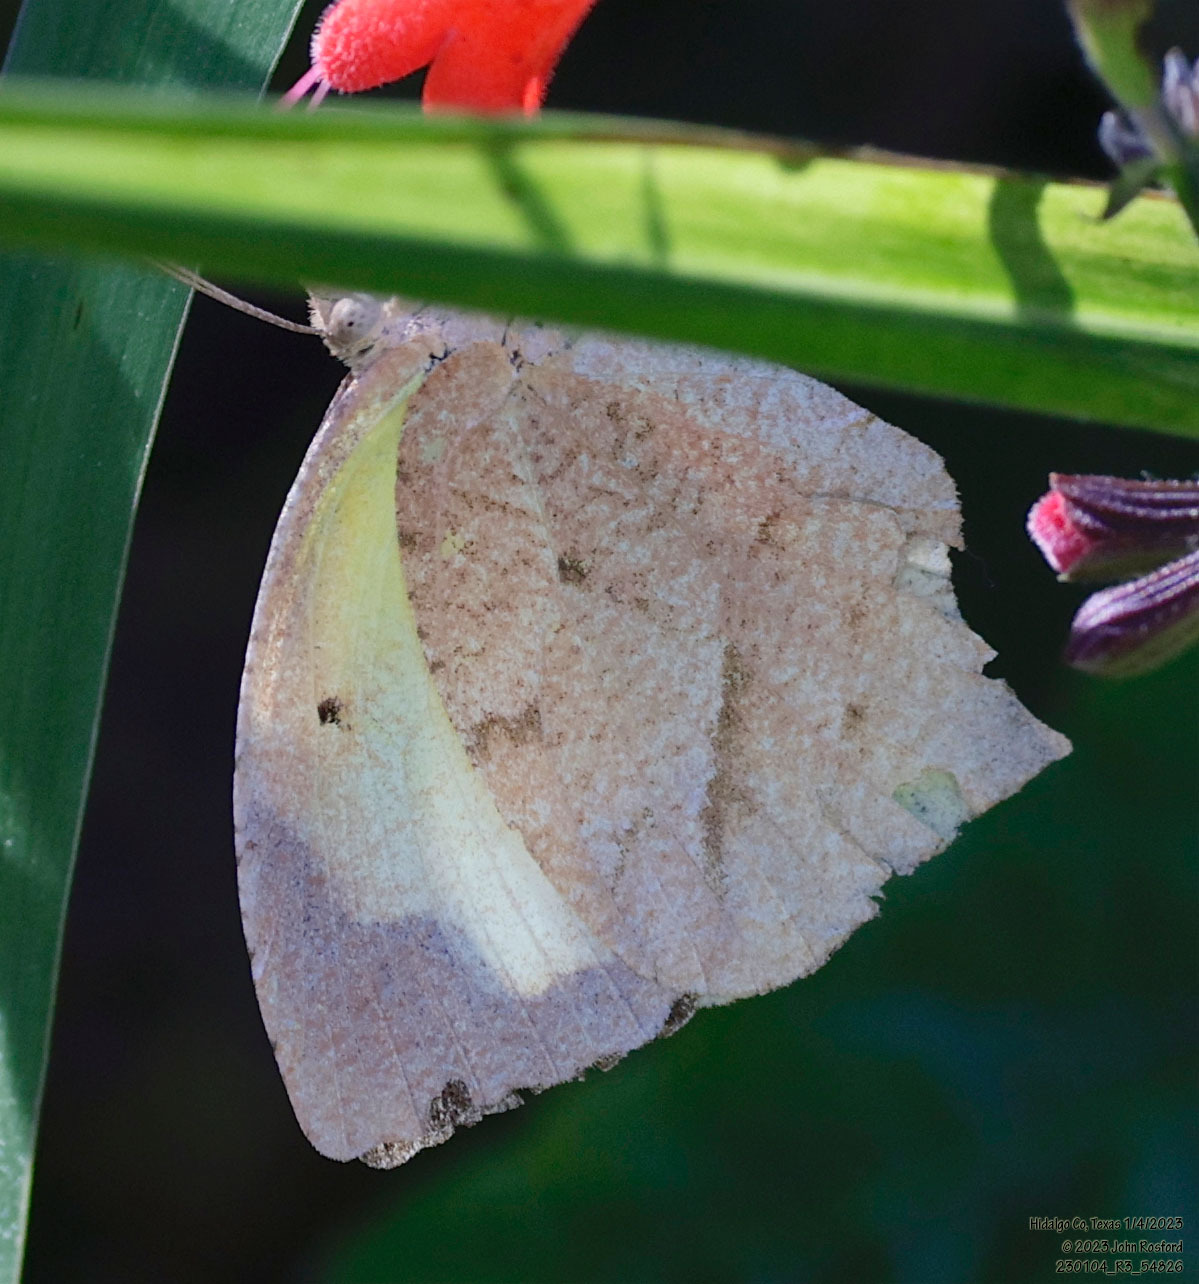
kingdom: Animalia
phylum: Arthropoda
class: Insecta
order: Lepidoptera
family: Pieridae
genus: Abaeis
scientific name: Abaeis mexicana
